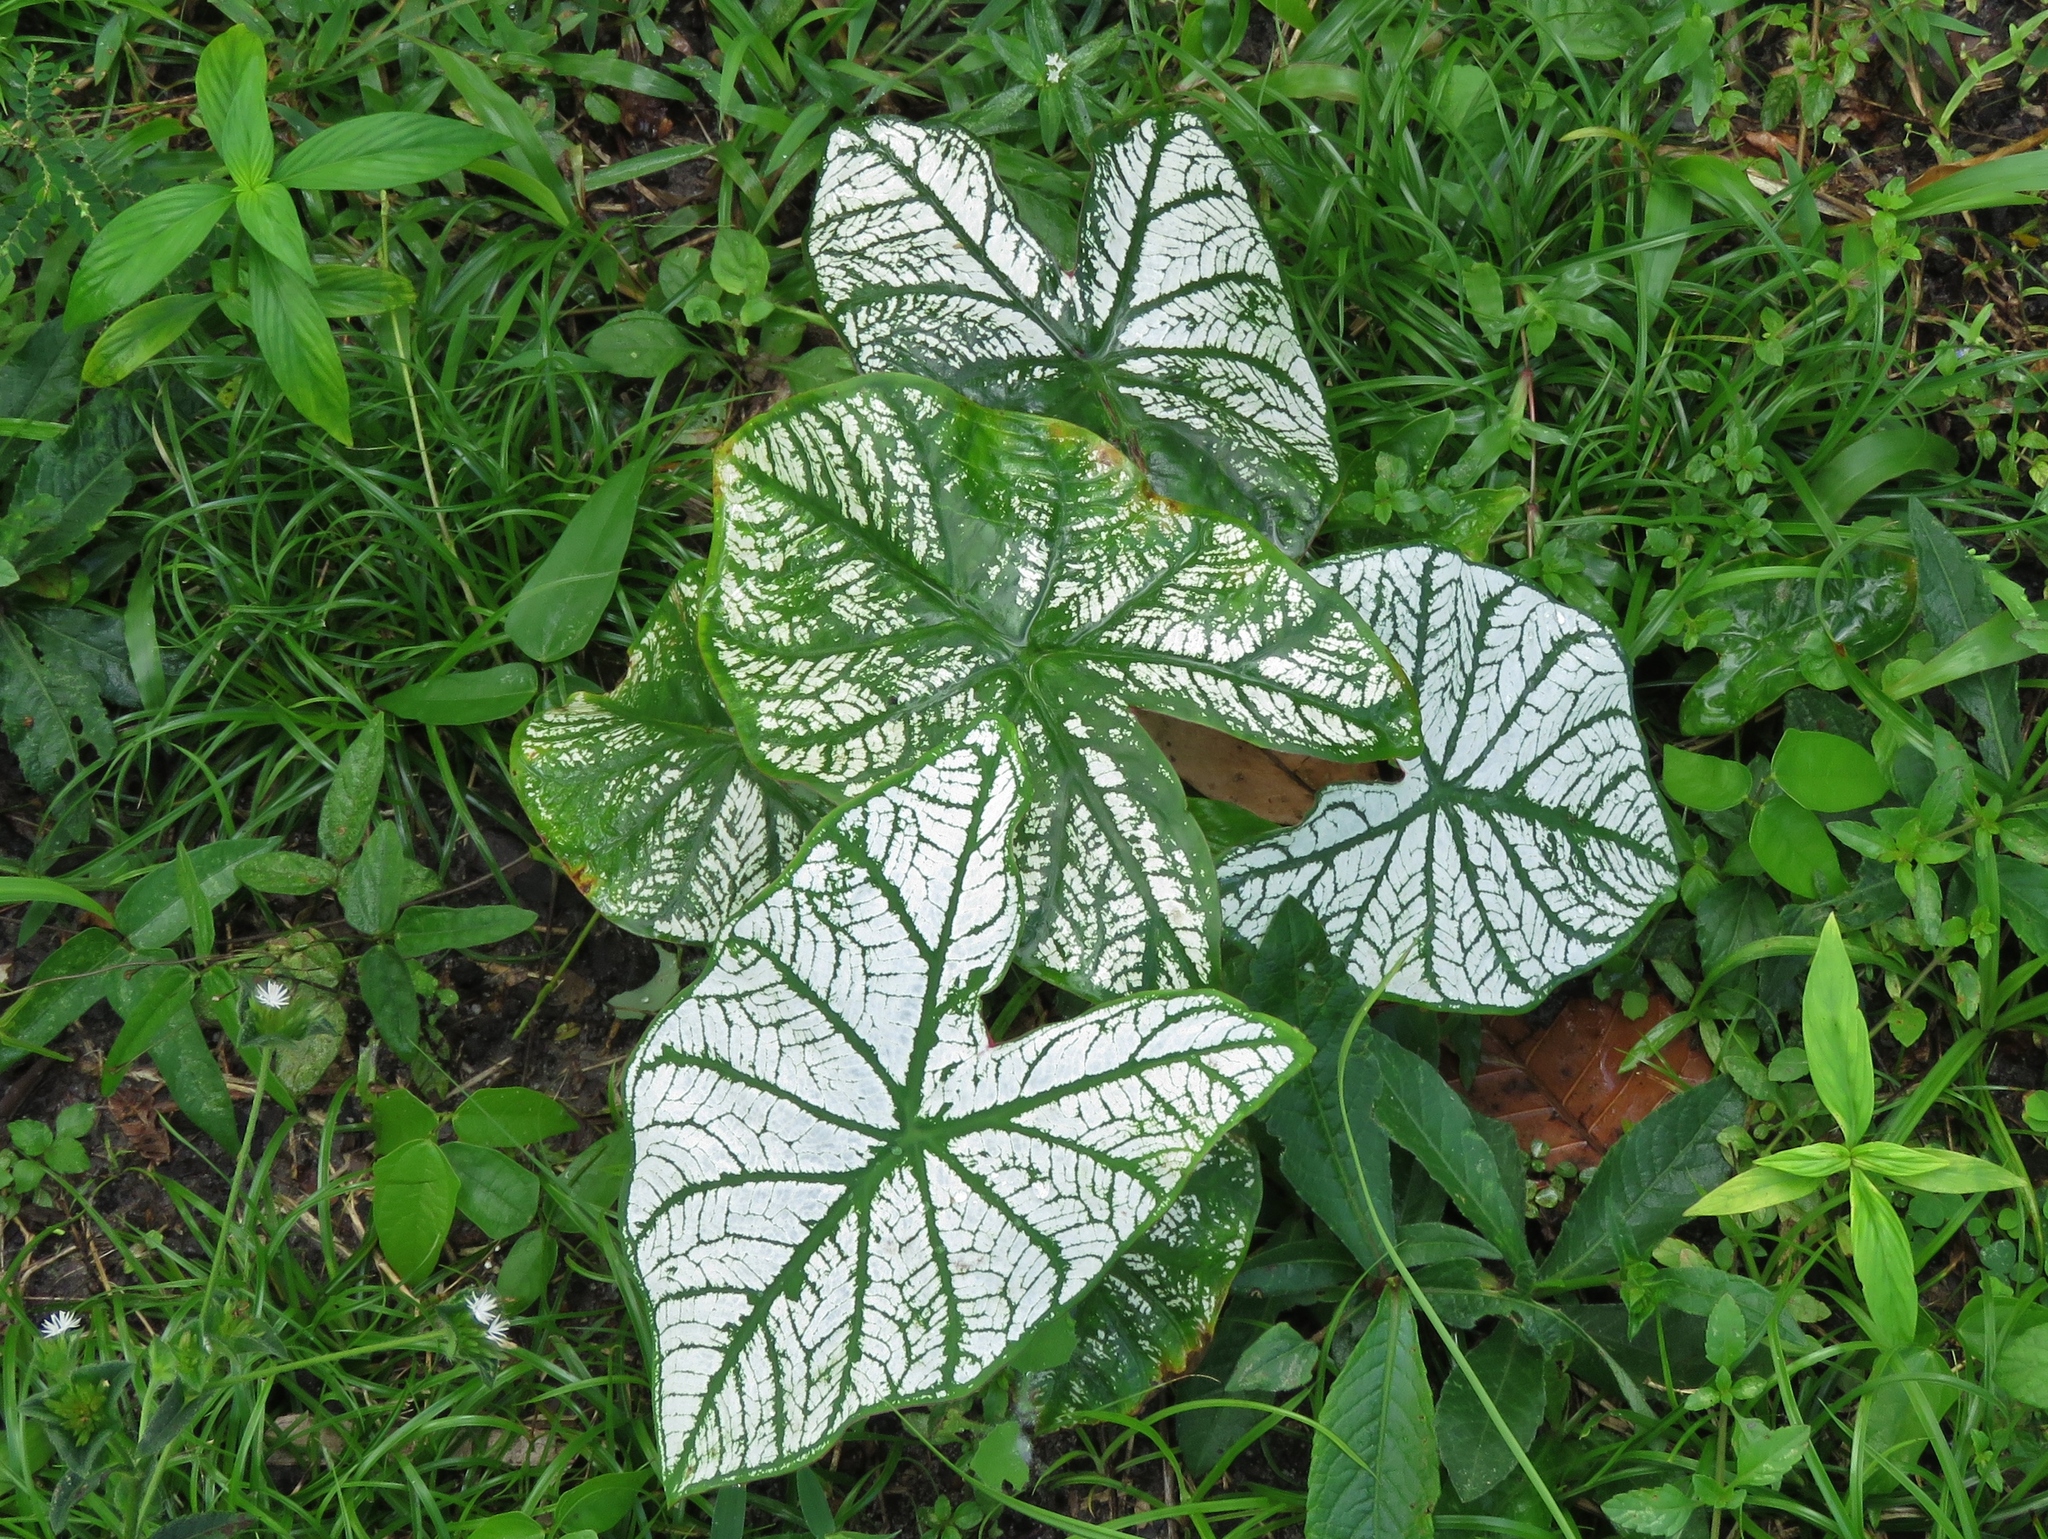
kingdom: Plantae
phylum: Tracheophyta
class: Liliopsida
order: Alismatales
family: Araceae
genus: Caladium
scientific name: Caladium bicolor
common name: Artist's pallet
